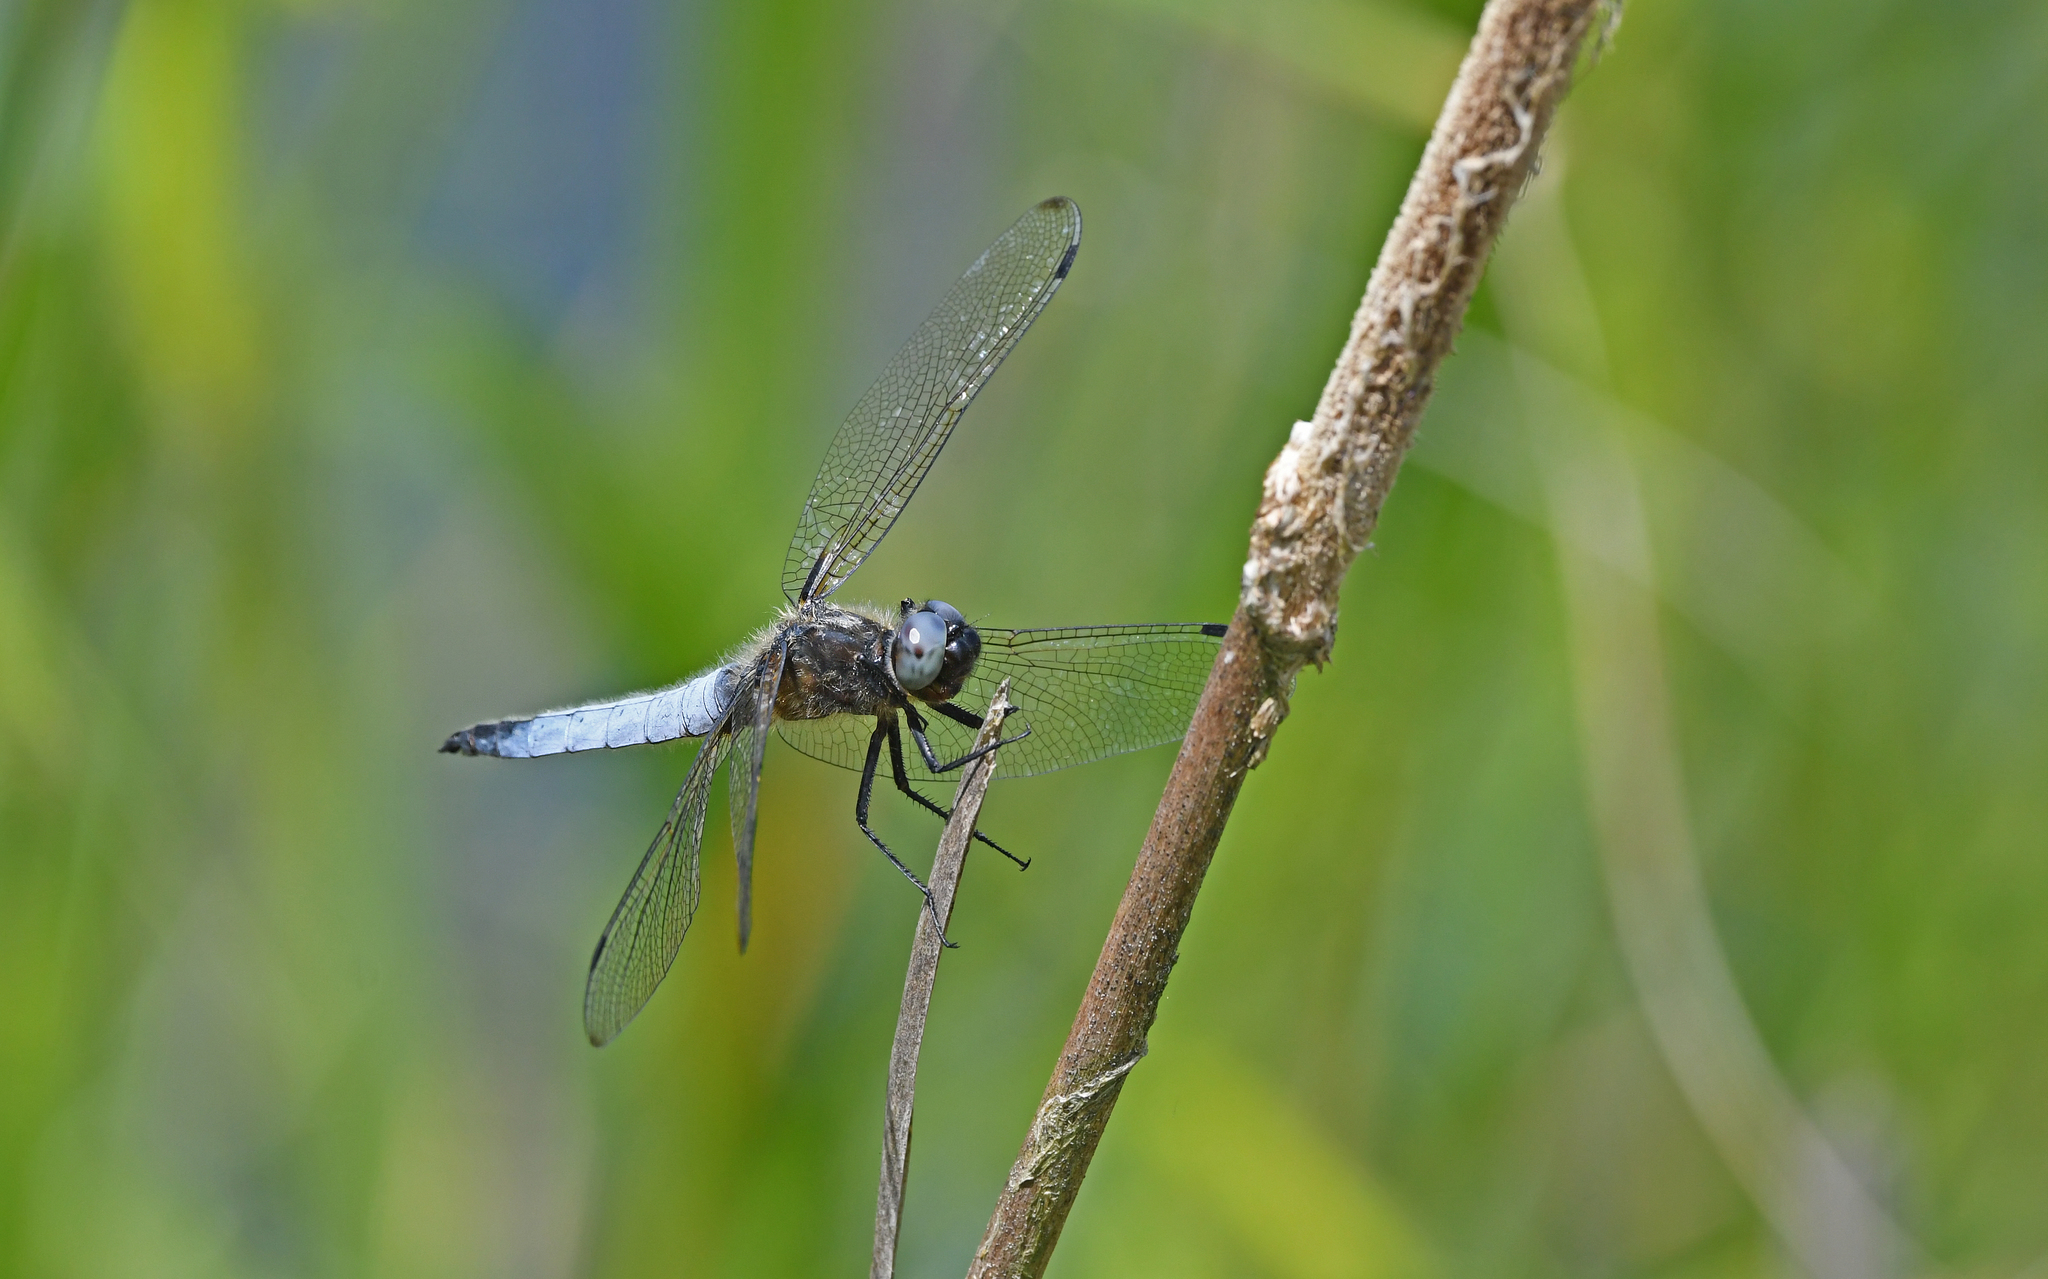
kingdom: Animalia
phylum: Arthropoda
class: Insecta
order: Odonata
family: Libellulidae
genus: Libellula
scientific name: Libellula fulva
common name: Blue chaser
